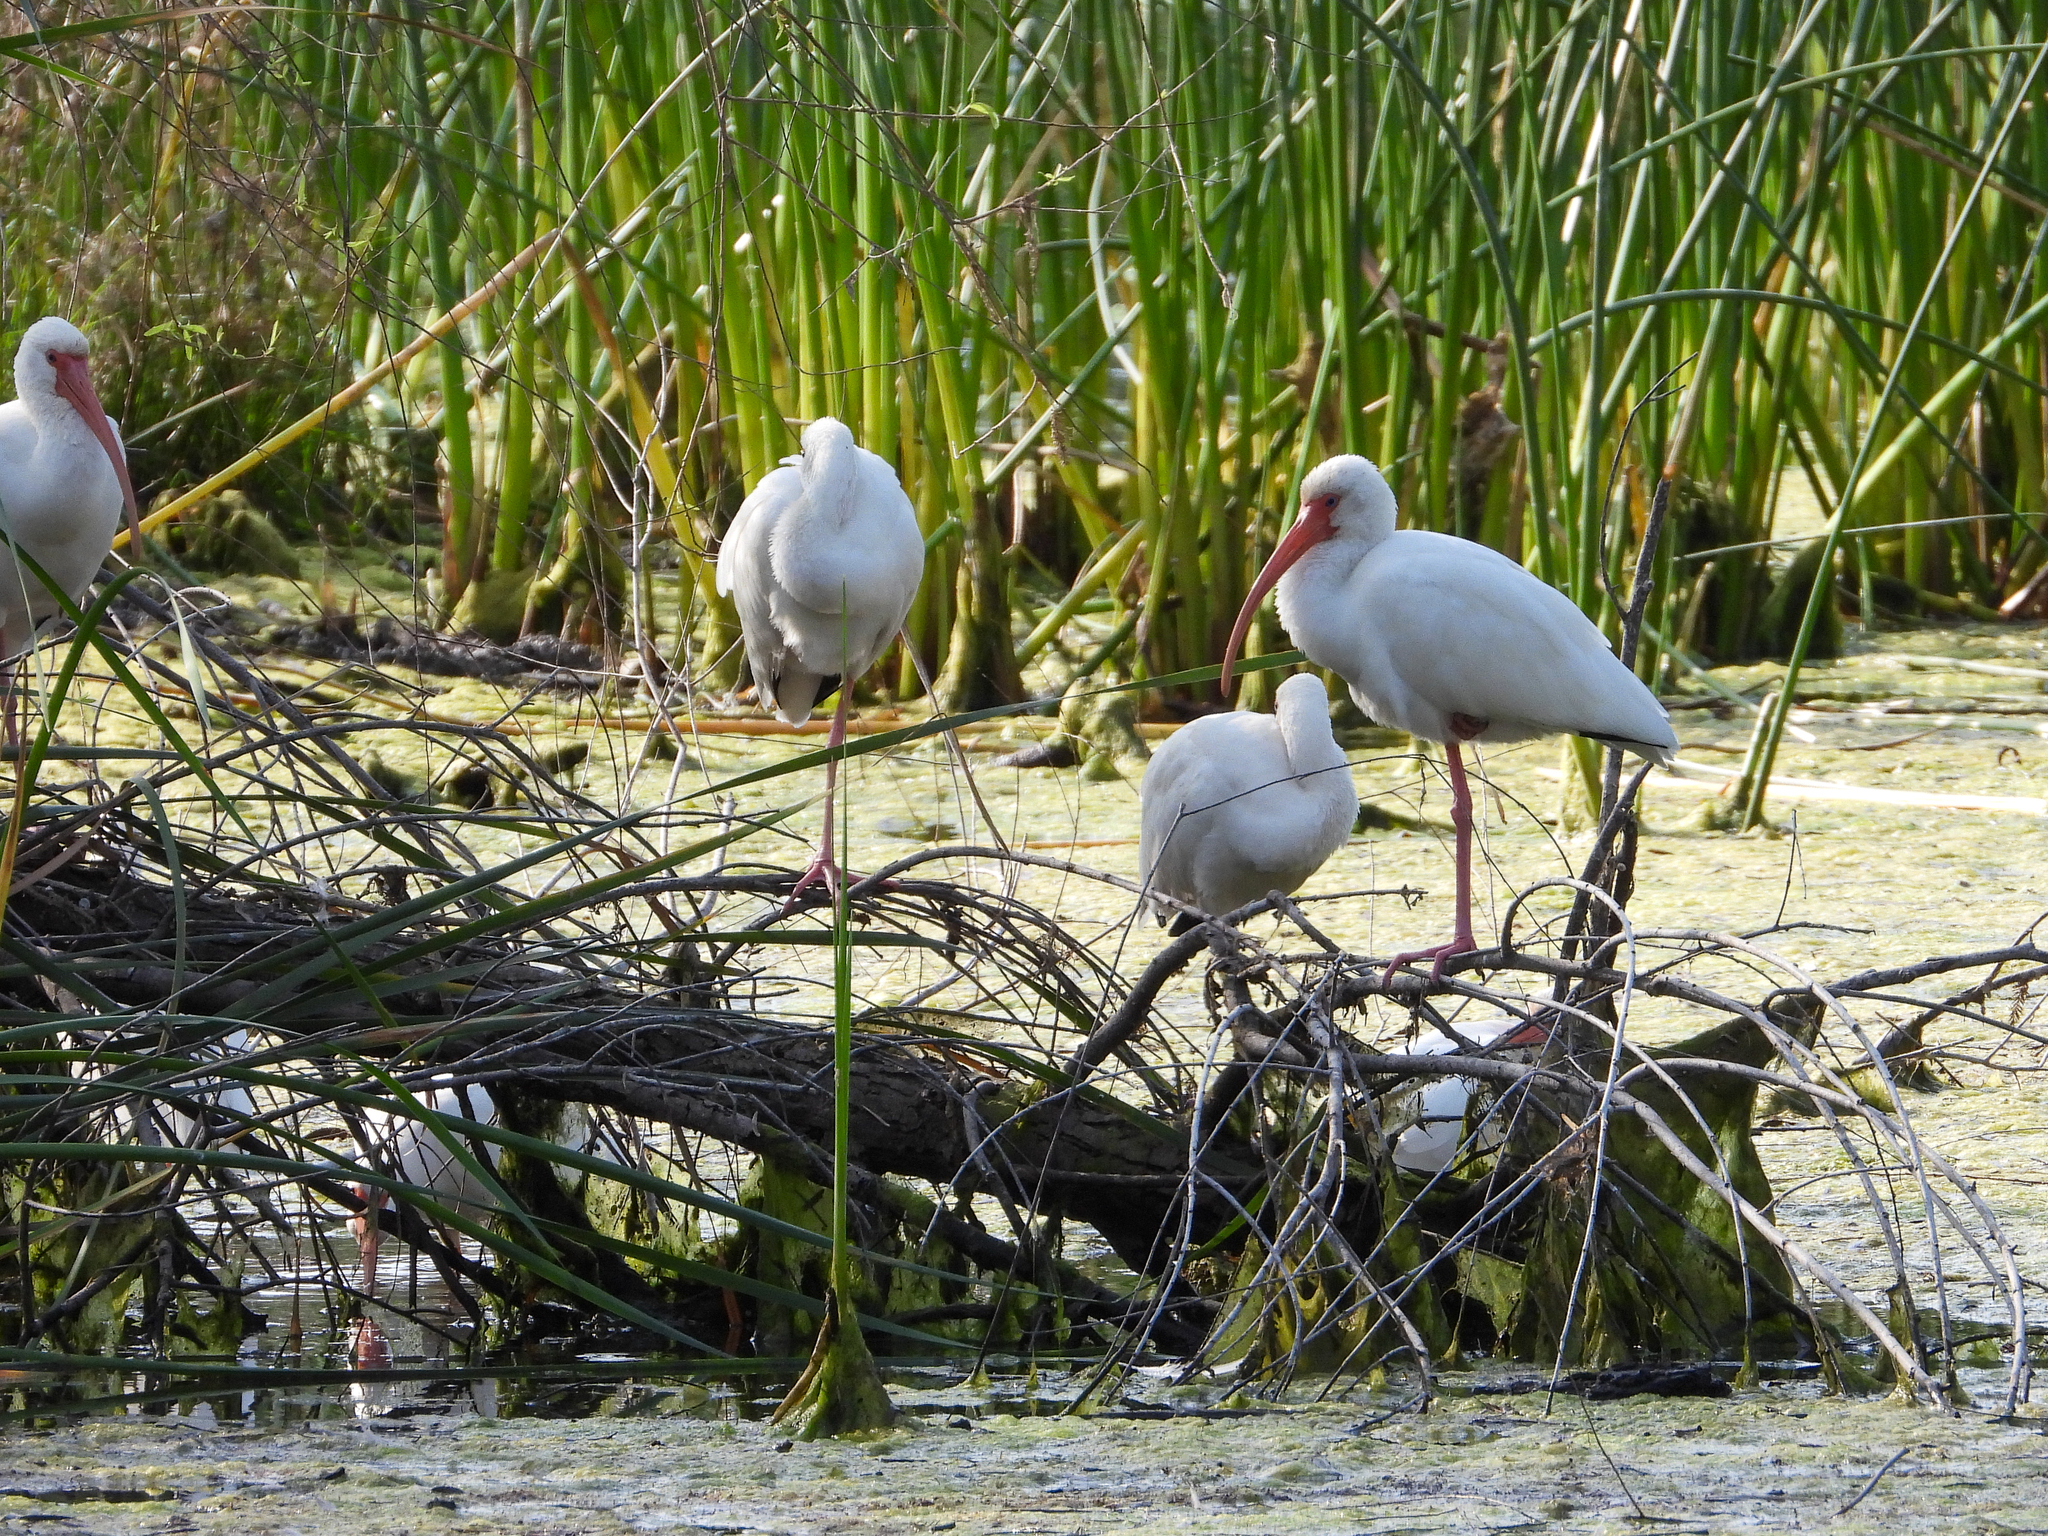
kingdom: Animalia
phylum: Chordata
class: Aves
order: Pelecaniformes
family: Threskiornithidae
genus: Eudocimus
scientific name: Eudocimus albus
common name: White ibis
